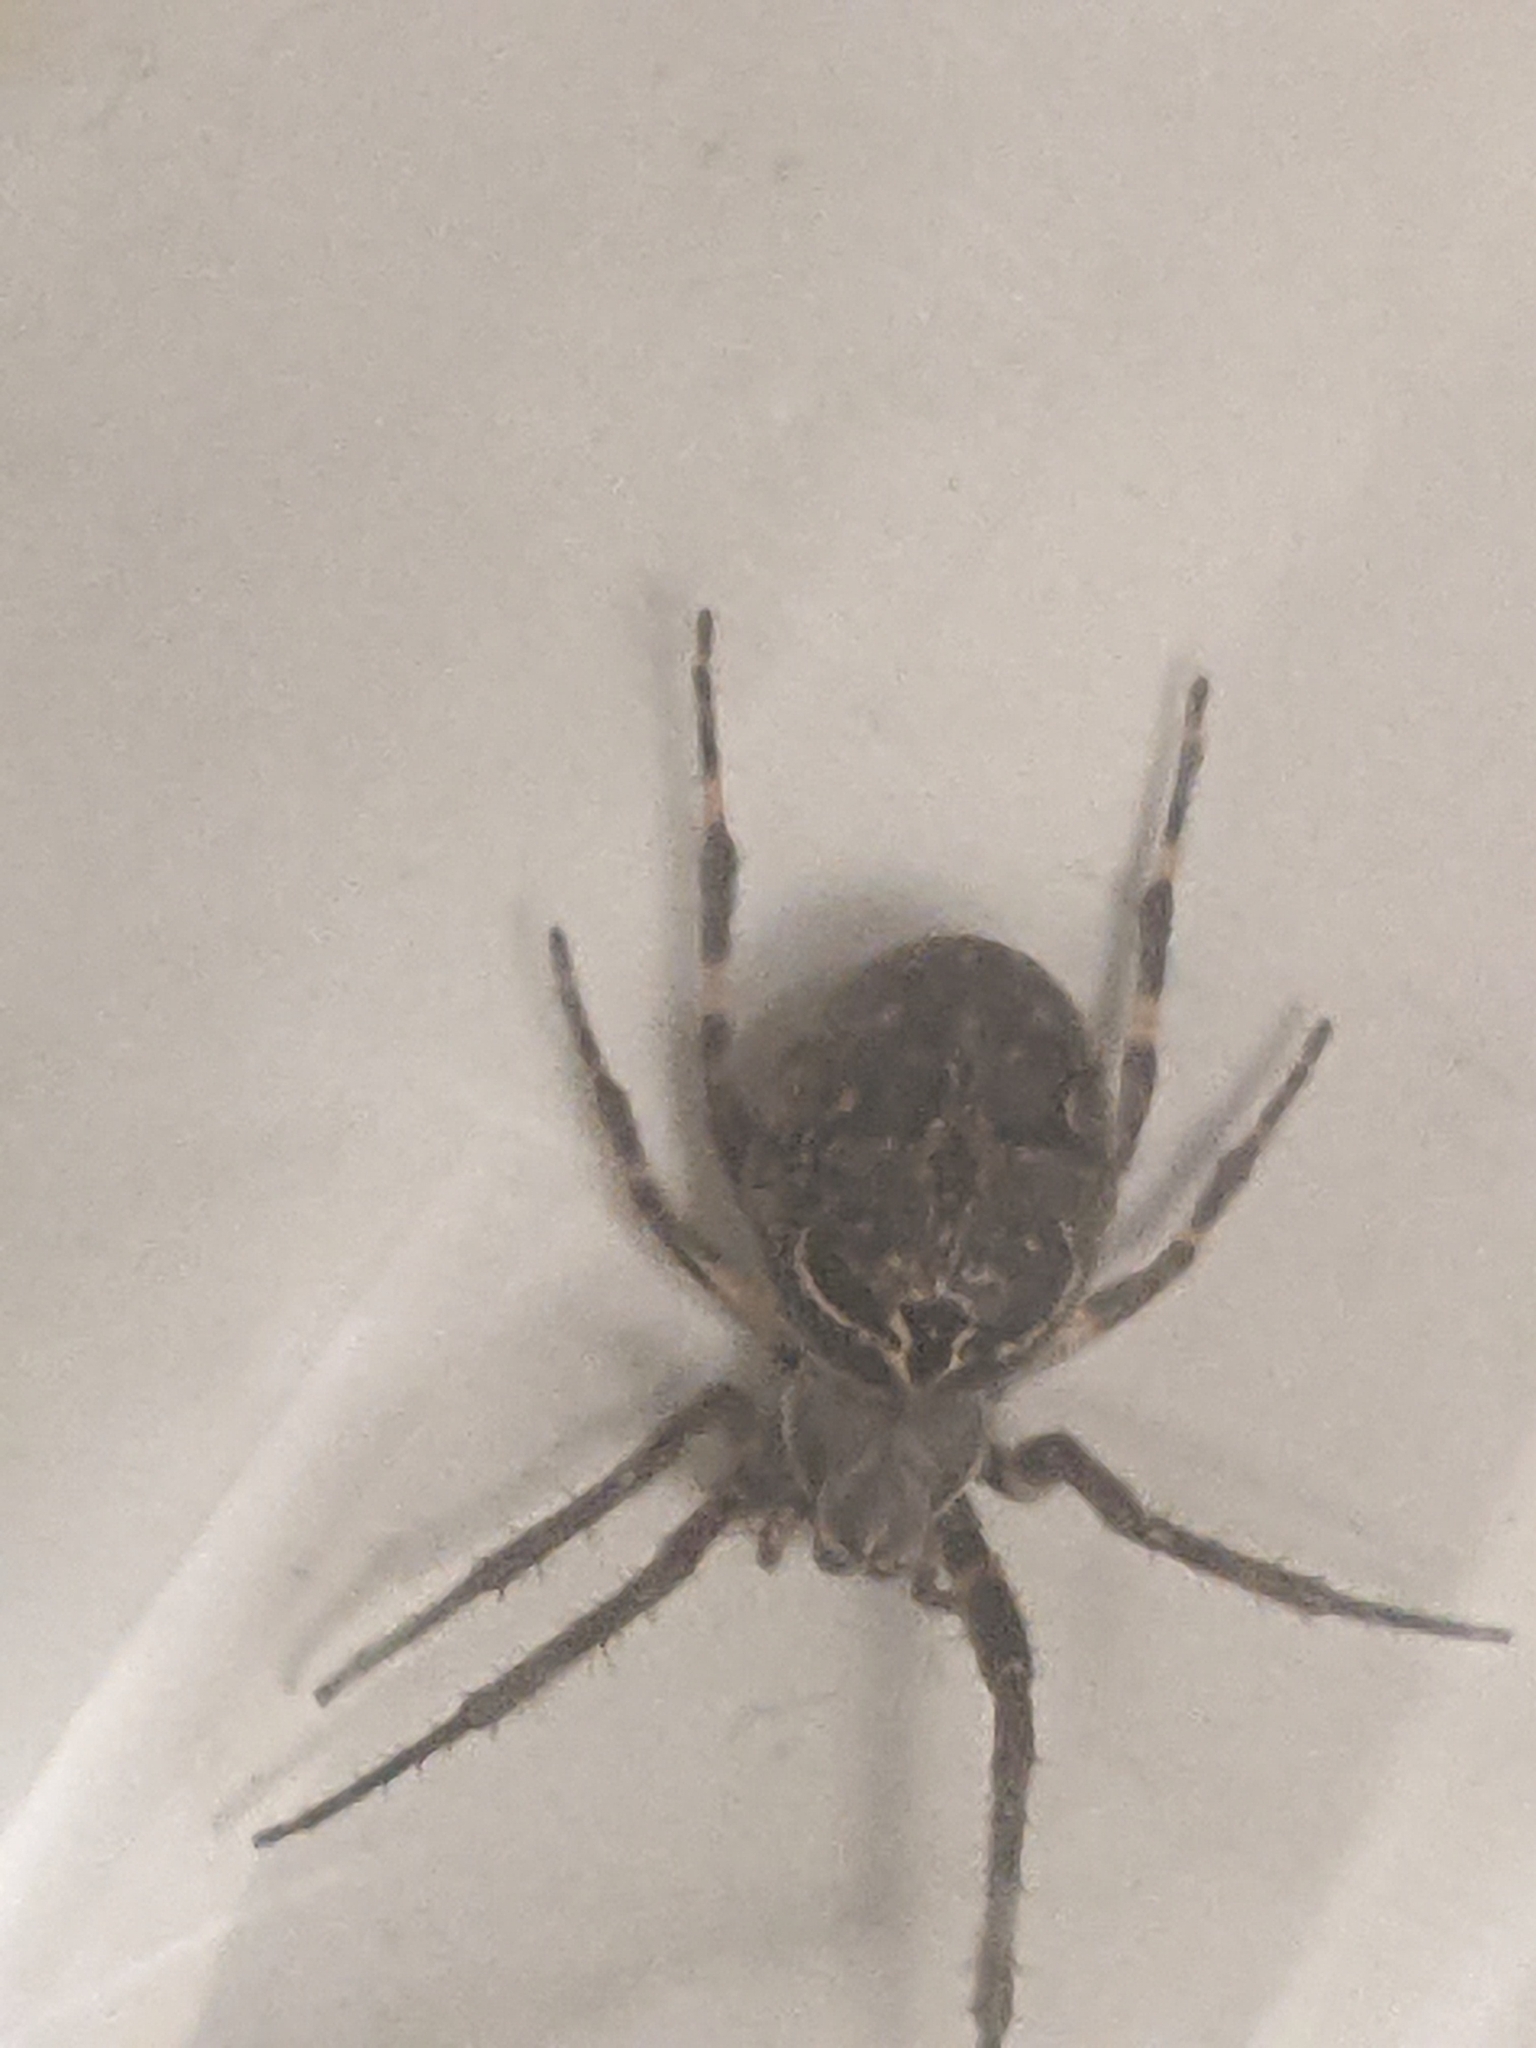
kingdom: Animalia
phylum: Arthropoda
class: Arachnida
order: Araneae
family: Araneidae
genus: Larinioides
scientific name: Larinioides sclopetarius
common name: Bridge orbweaver
